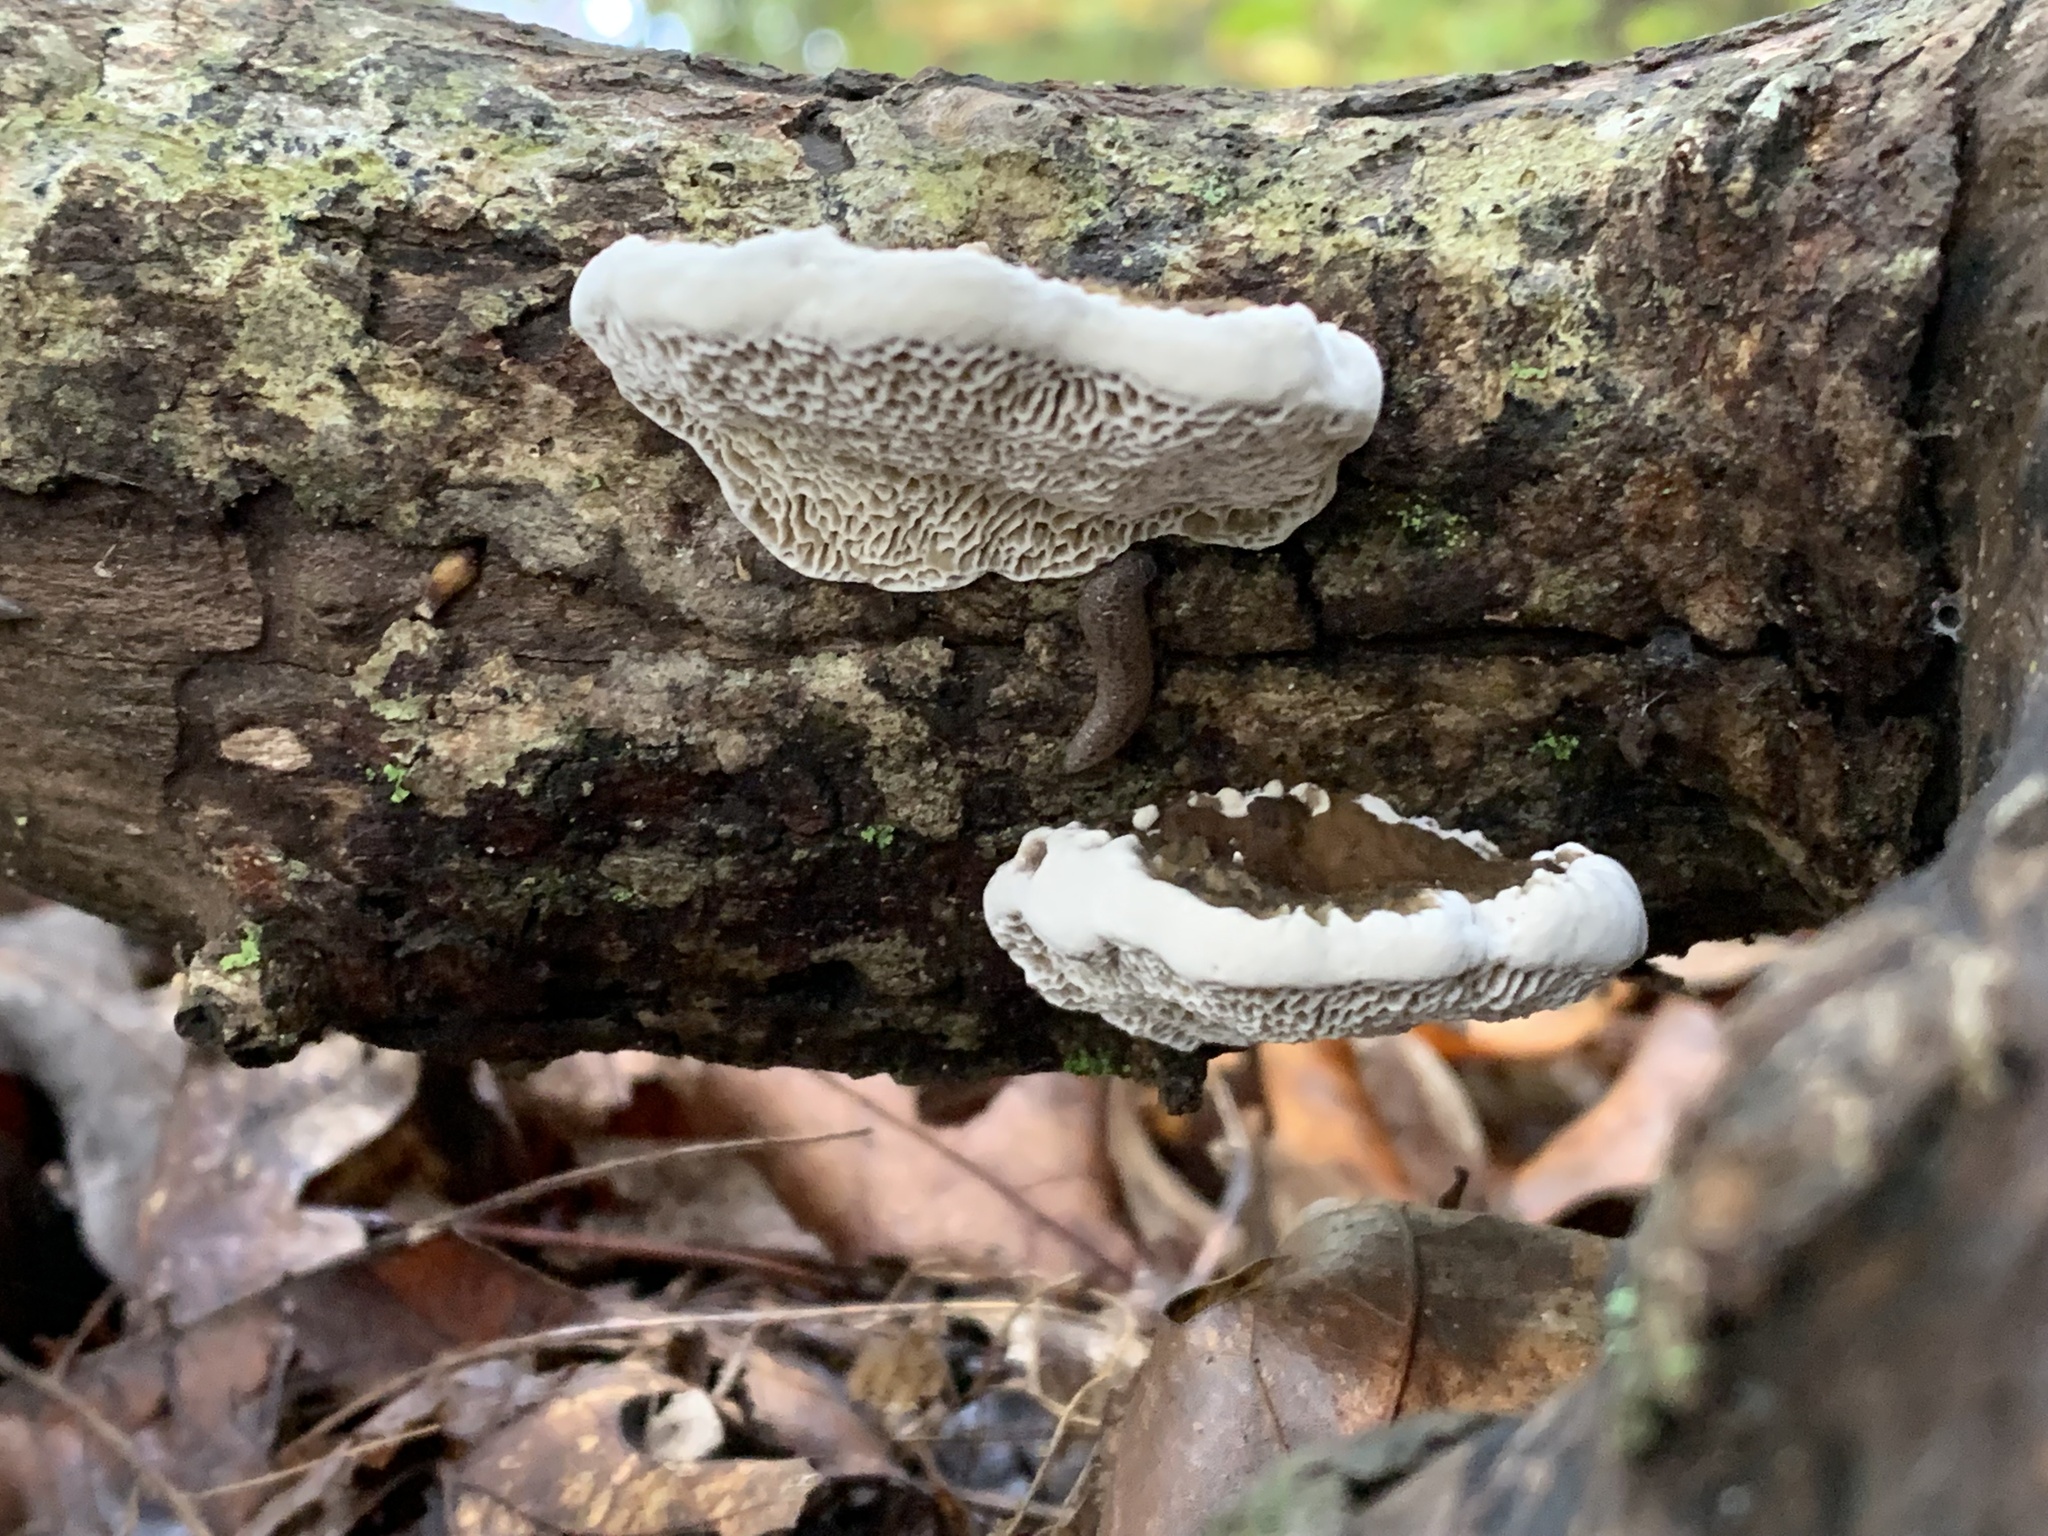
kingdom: Fungi
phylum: Basidiomycota
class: Agaricomycetes
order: Polyporales
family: Polyporaceae
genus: Daedaleopsis
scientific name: Daedaleopsis confragosa
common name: Blushing bracket
